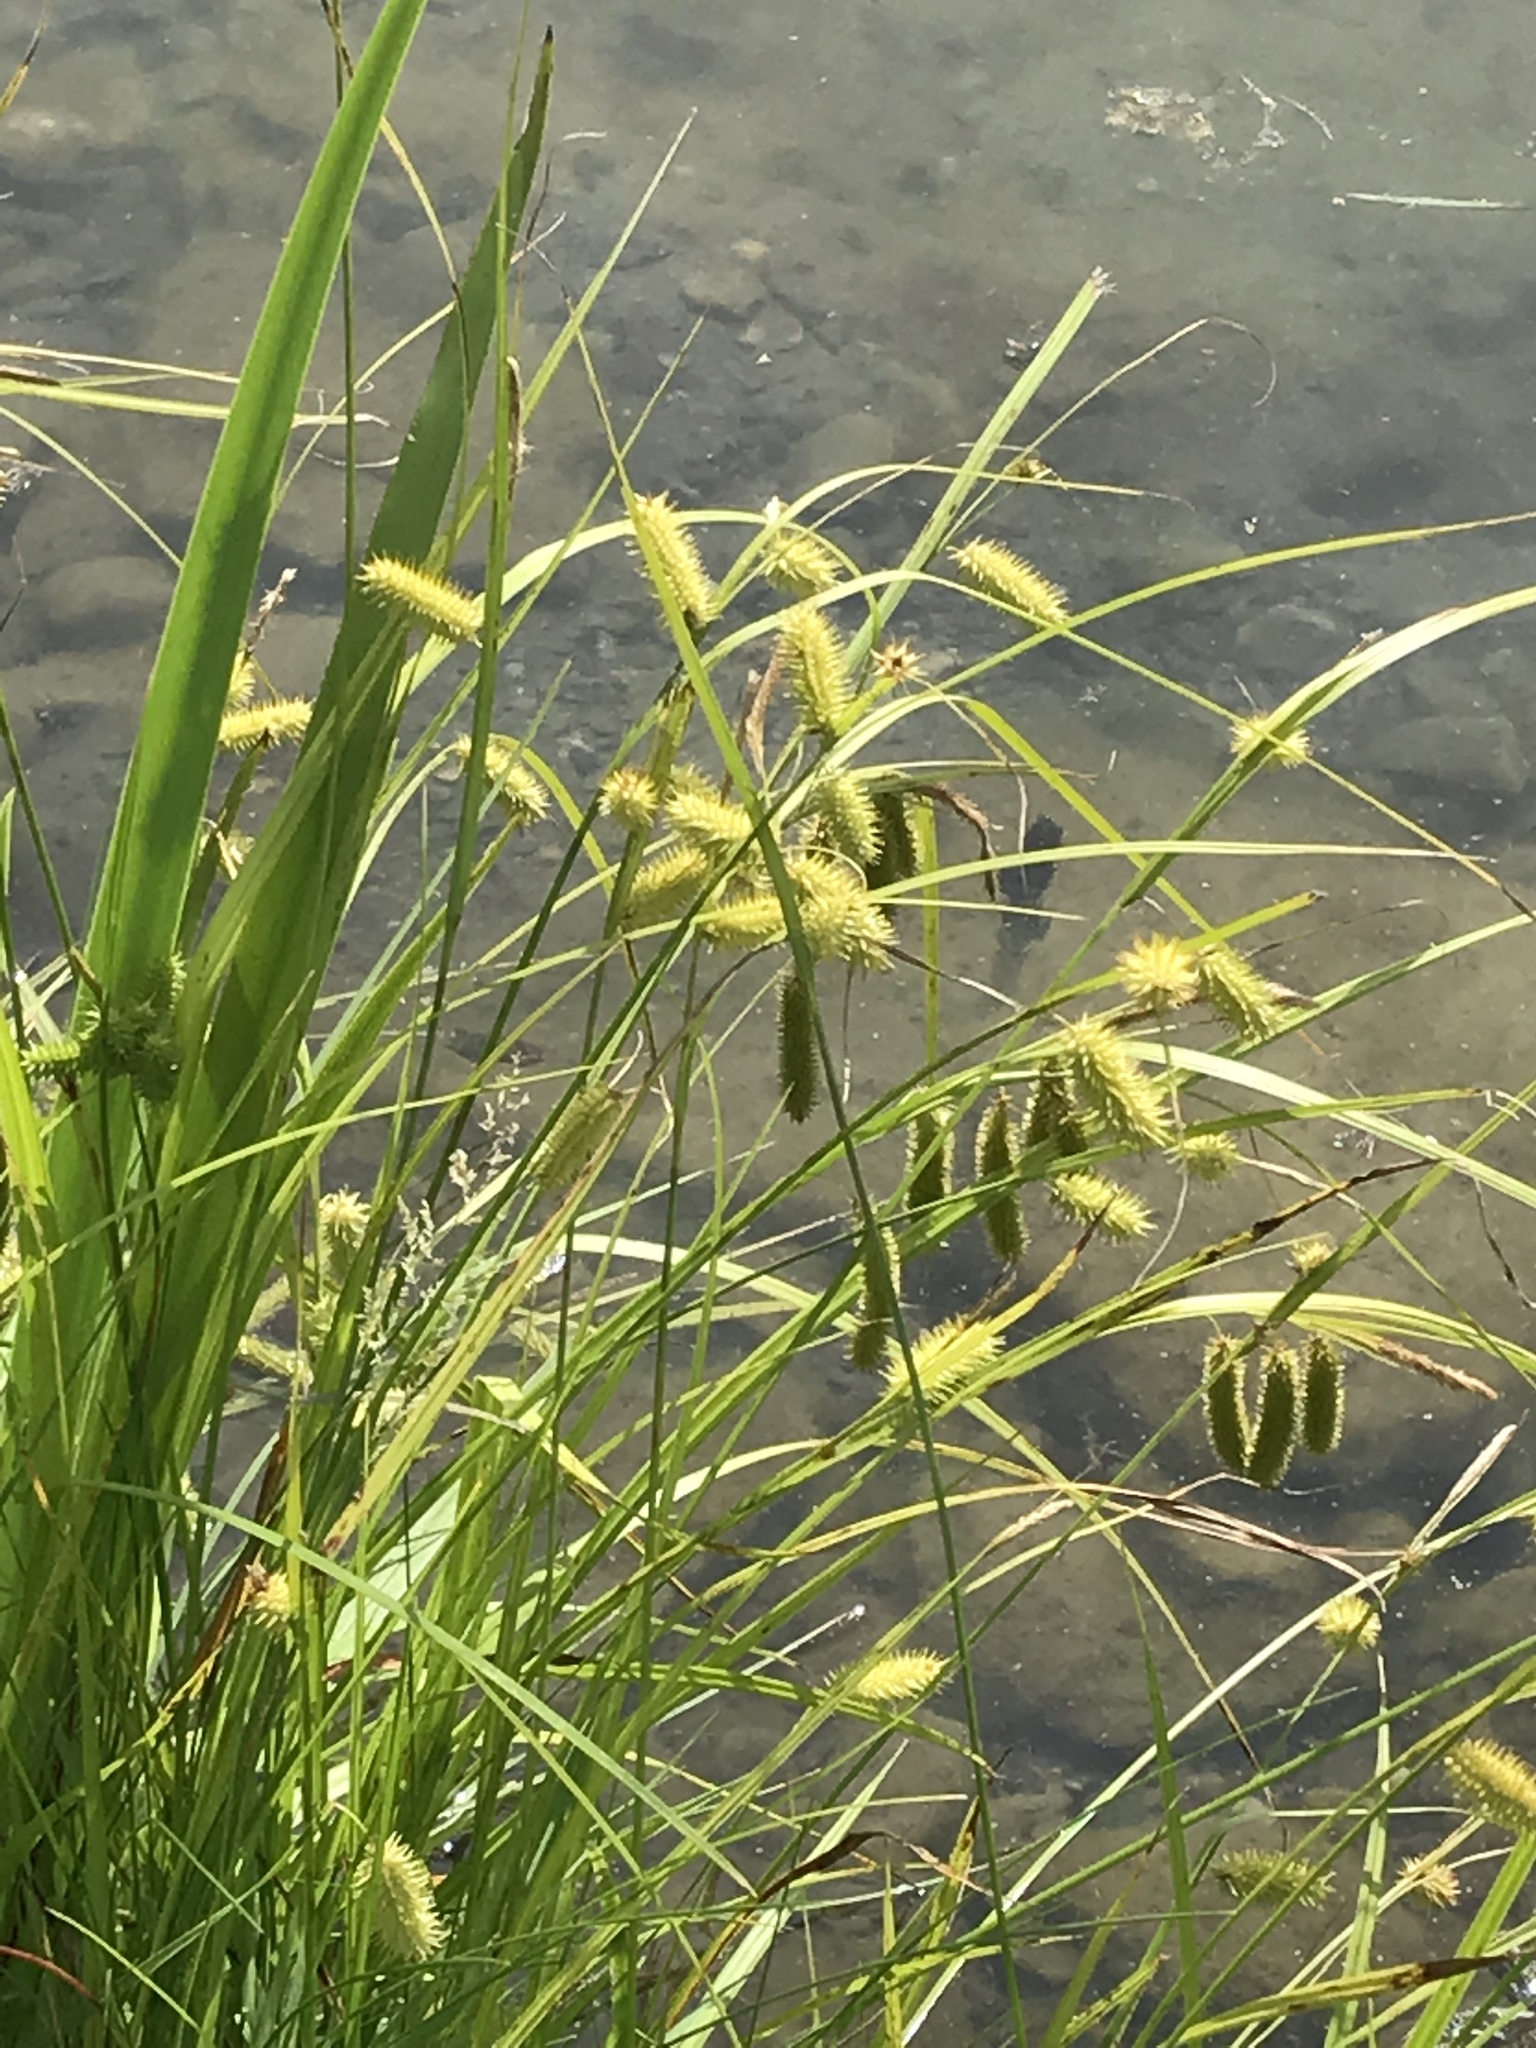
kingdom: Plantae
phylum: Tracheophyta
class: Liliopsida
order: Poales
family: Cyperaceae
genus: Carex
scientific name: Carex hystericina
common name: Bottlebrush sedge
